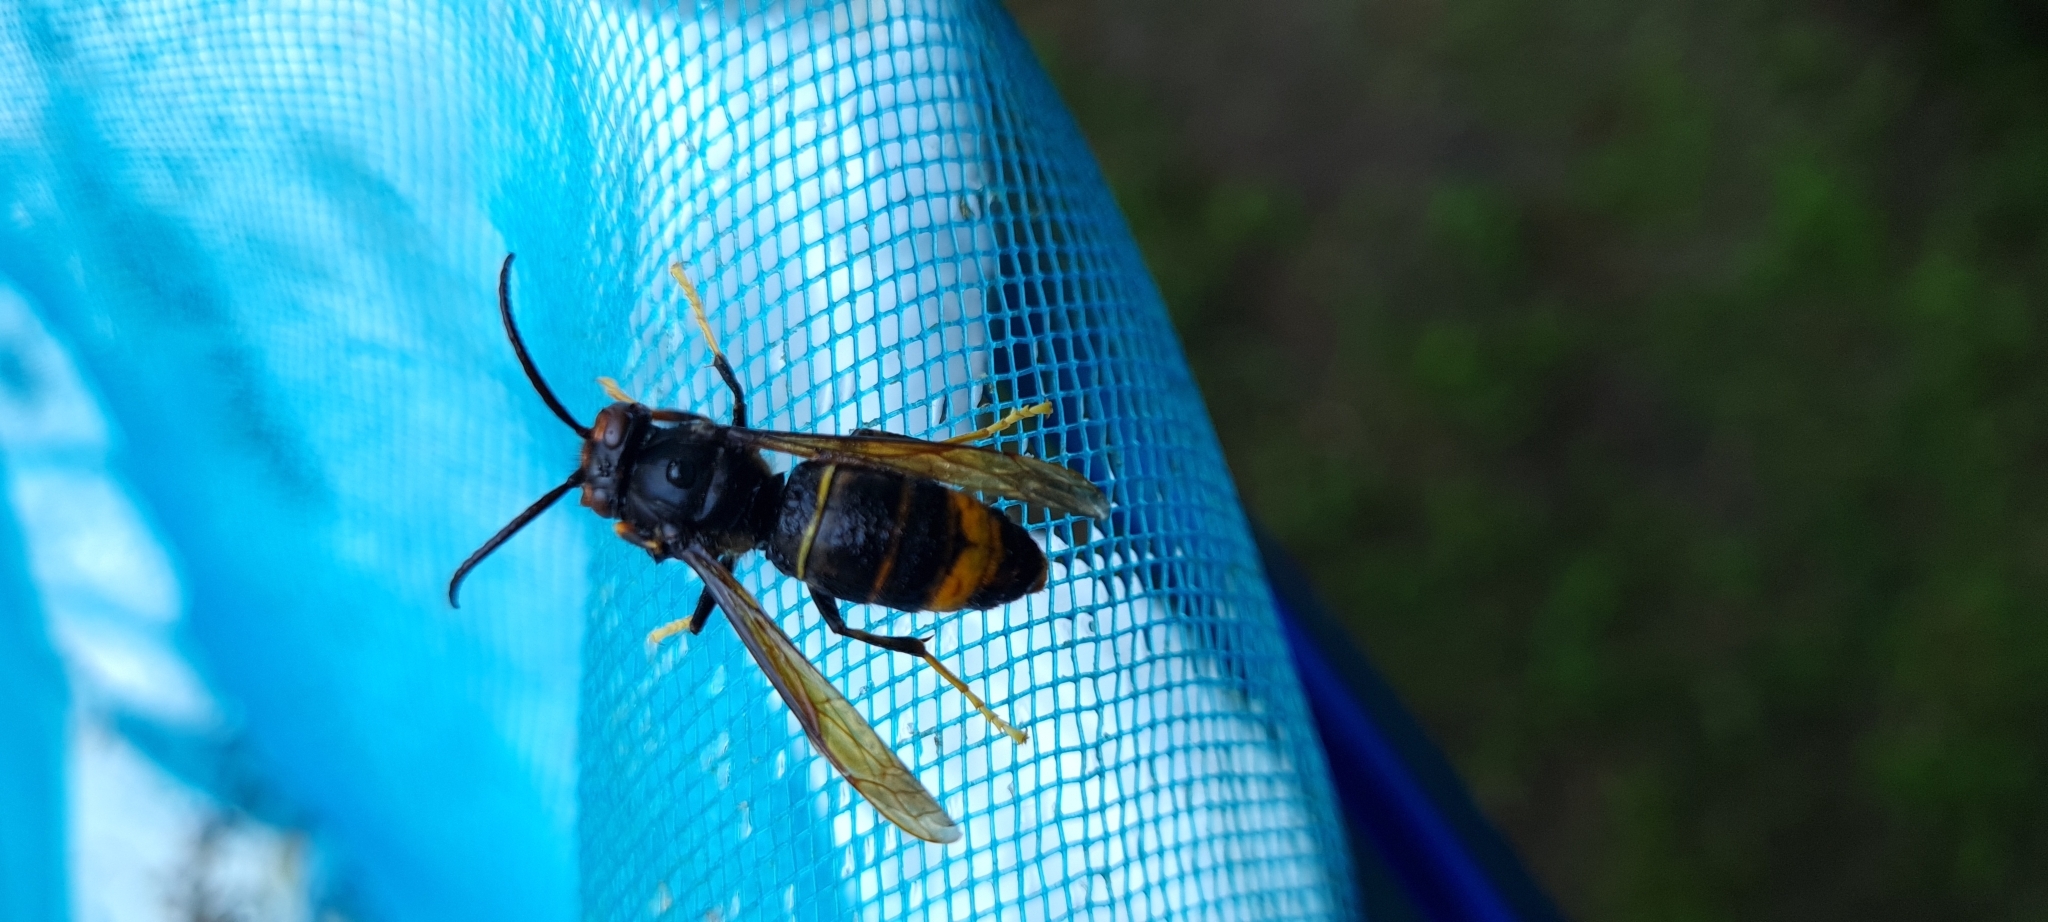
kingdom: Animalia
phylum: Arthropoda
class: Insecta
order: Hymenoptera
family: Vespidae
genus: Vespa
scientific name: Vespa velutina
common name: Asian hornet
